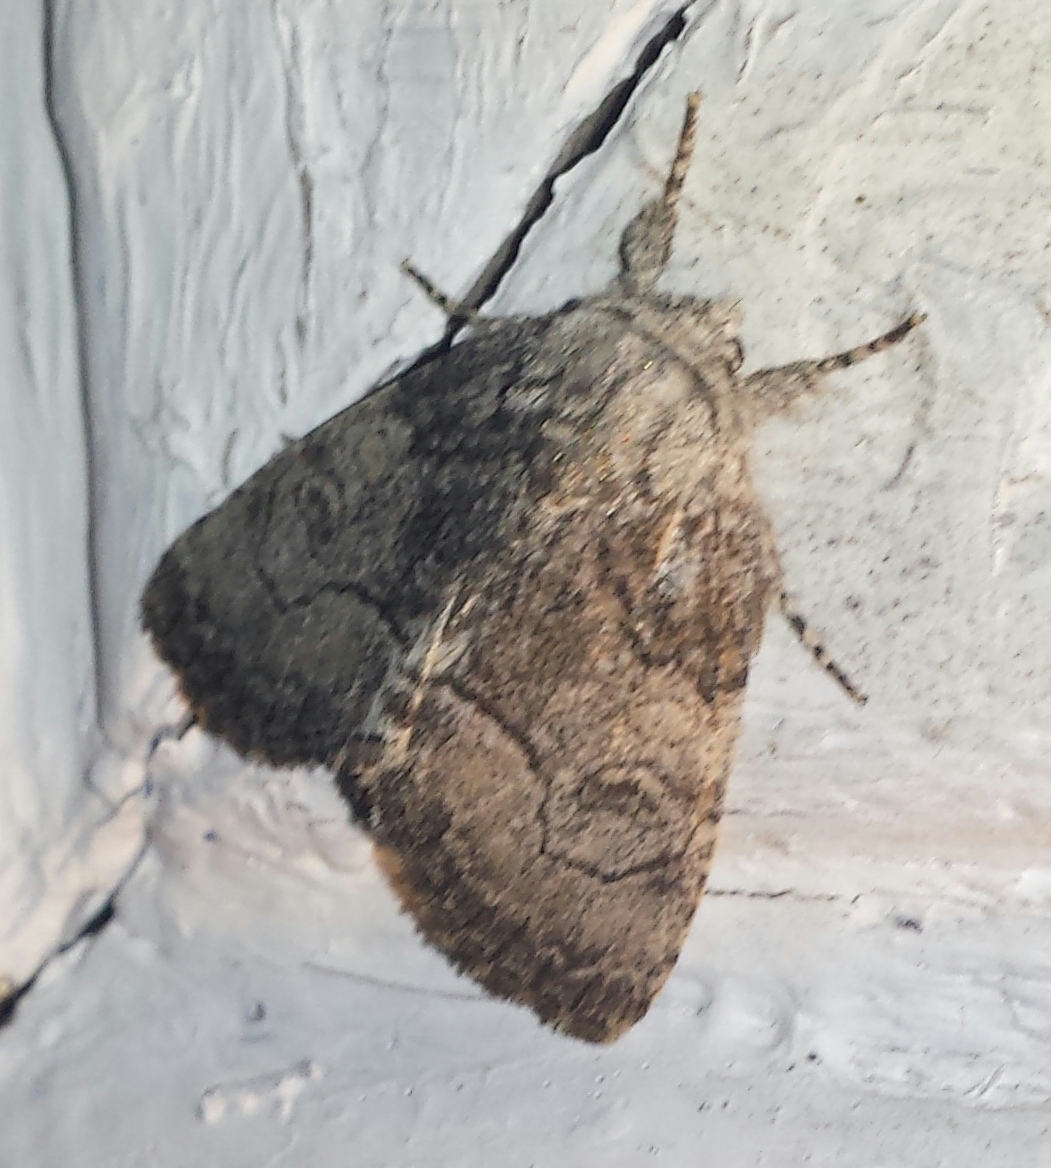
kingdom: Animalia
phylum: Arthropoda
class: Insecta
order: Lepidoptera
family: Noctuidae
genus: Raphia
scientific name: Raphia frater
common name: Brother
